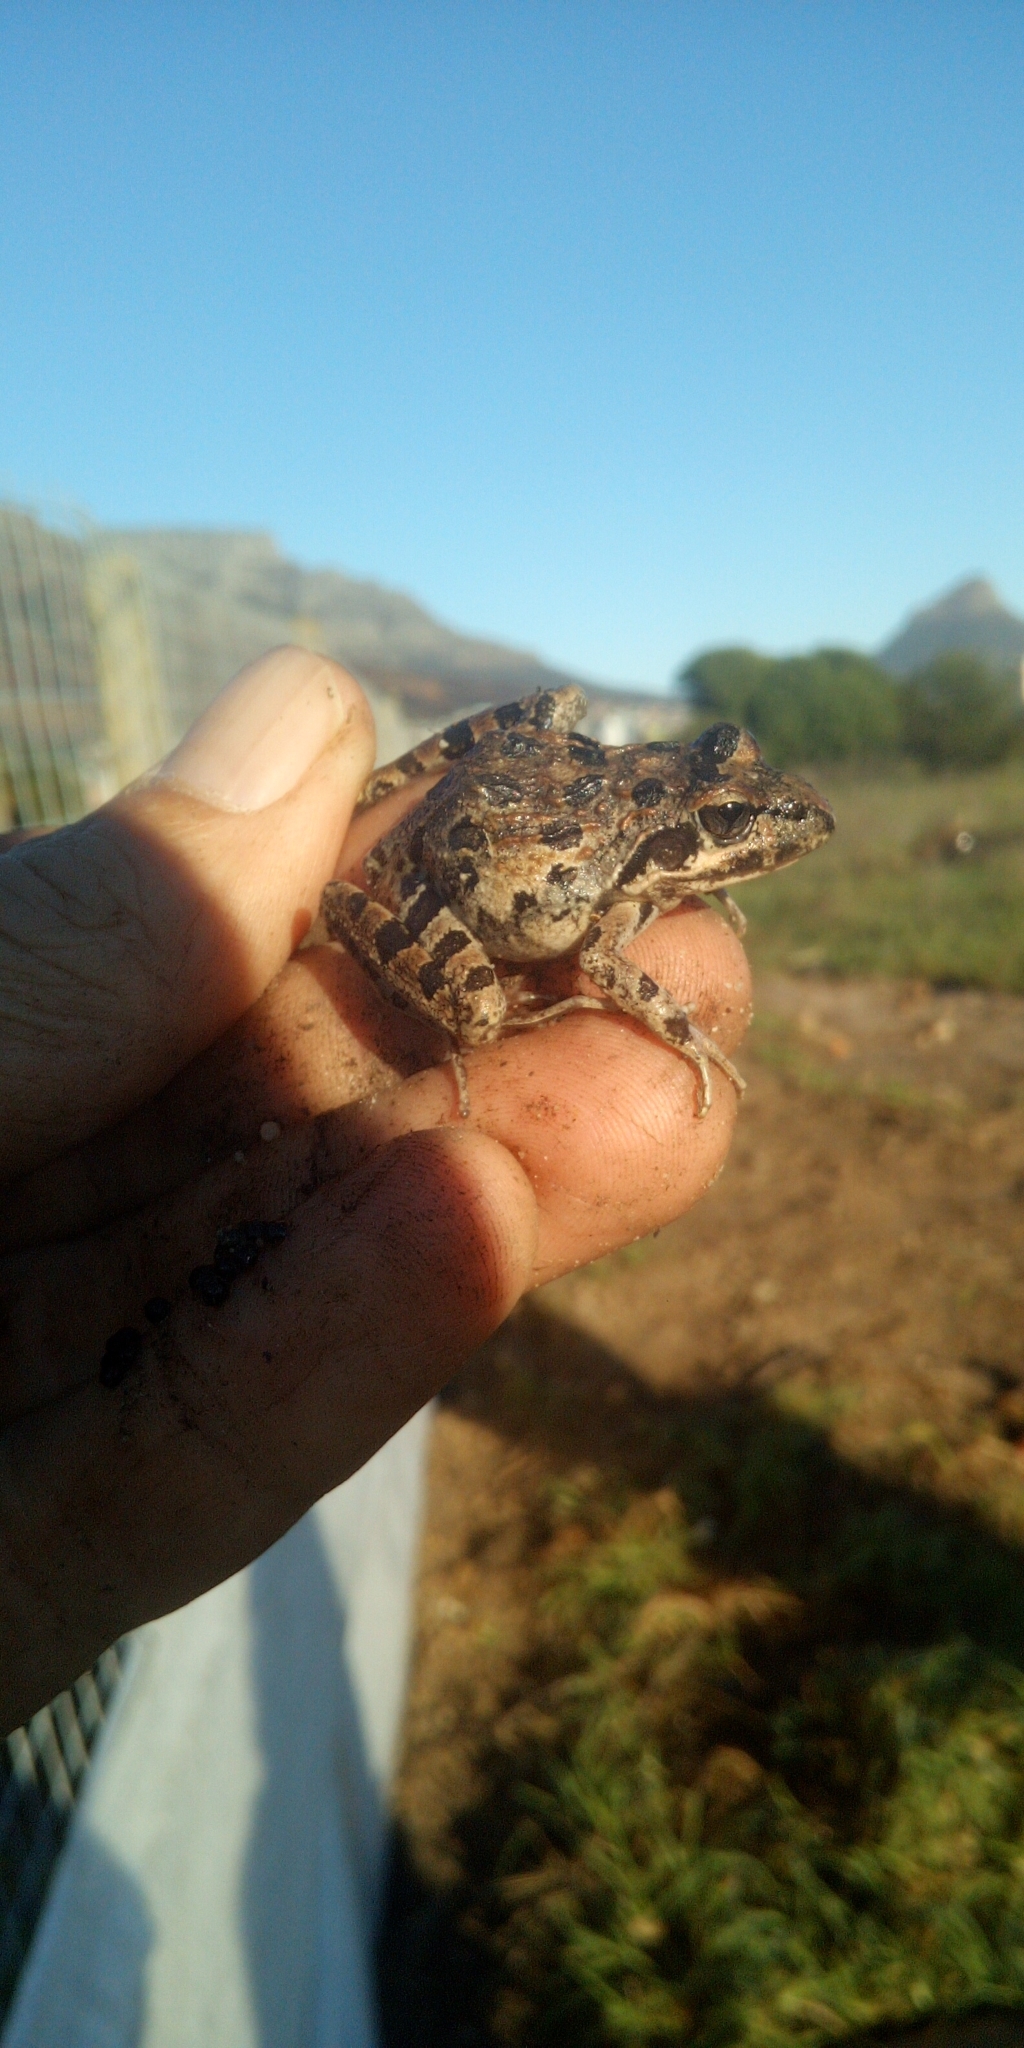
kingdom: Animalia
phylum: Chordata
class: Amphibia
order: Anura
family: Pyxicephalidae
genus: Strongylopus
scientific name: Strongylopus grayii
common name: Gray's stream frog
